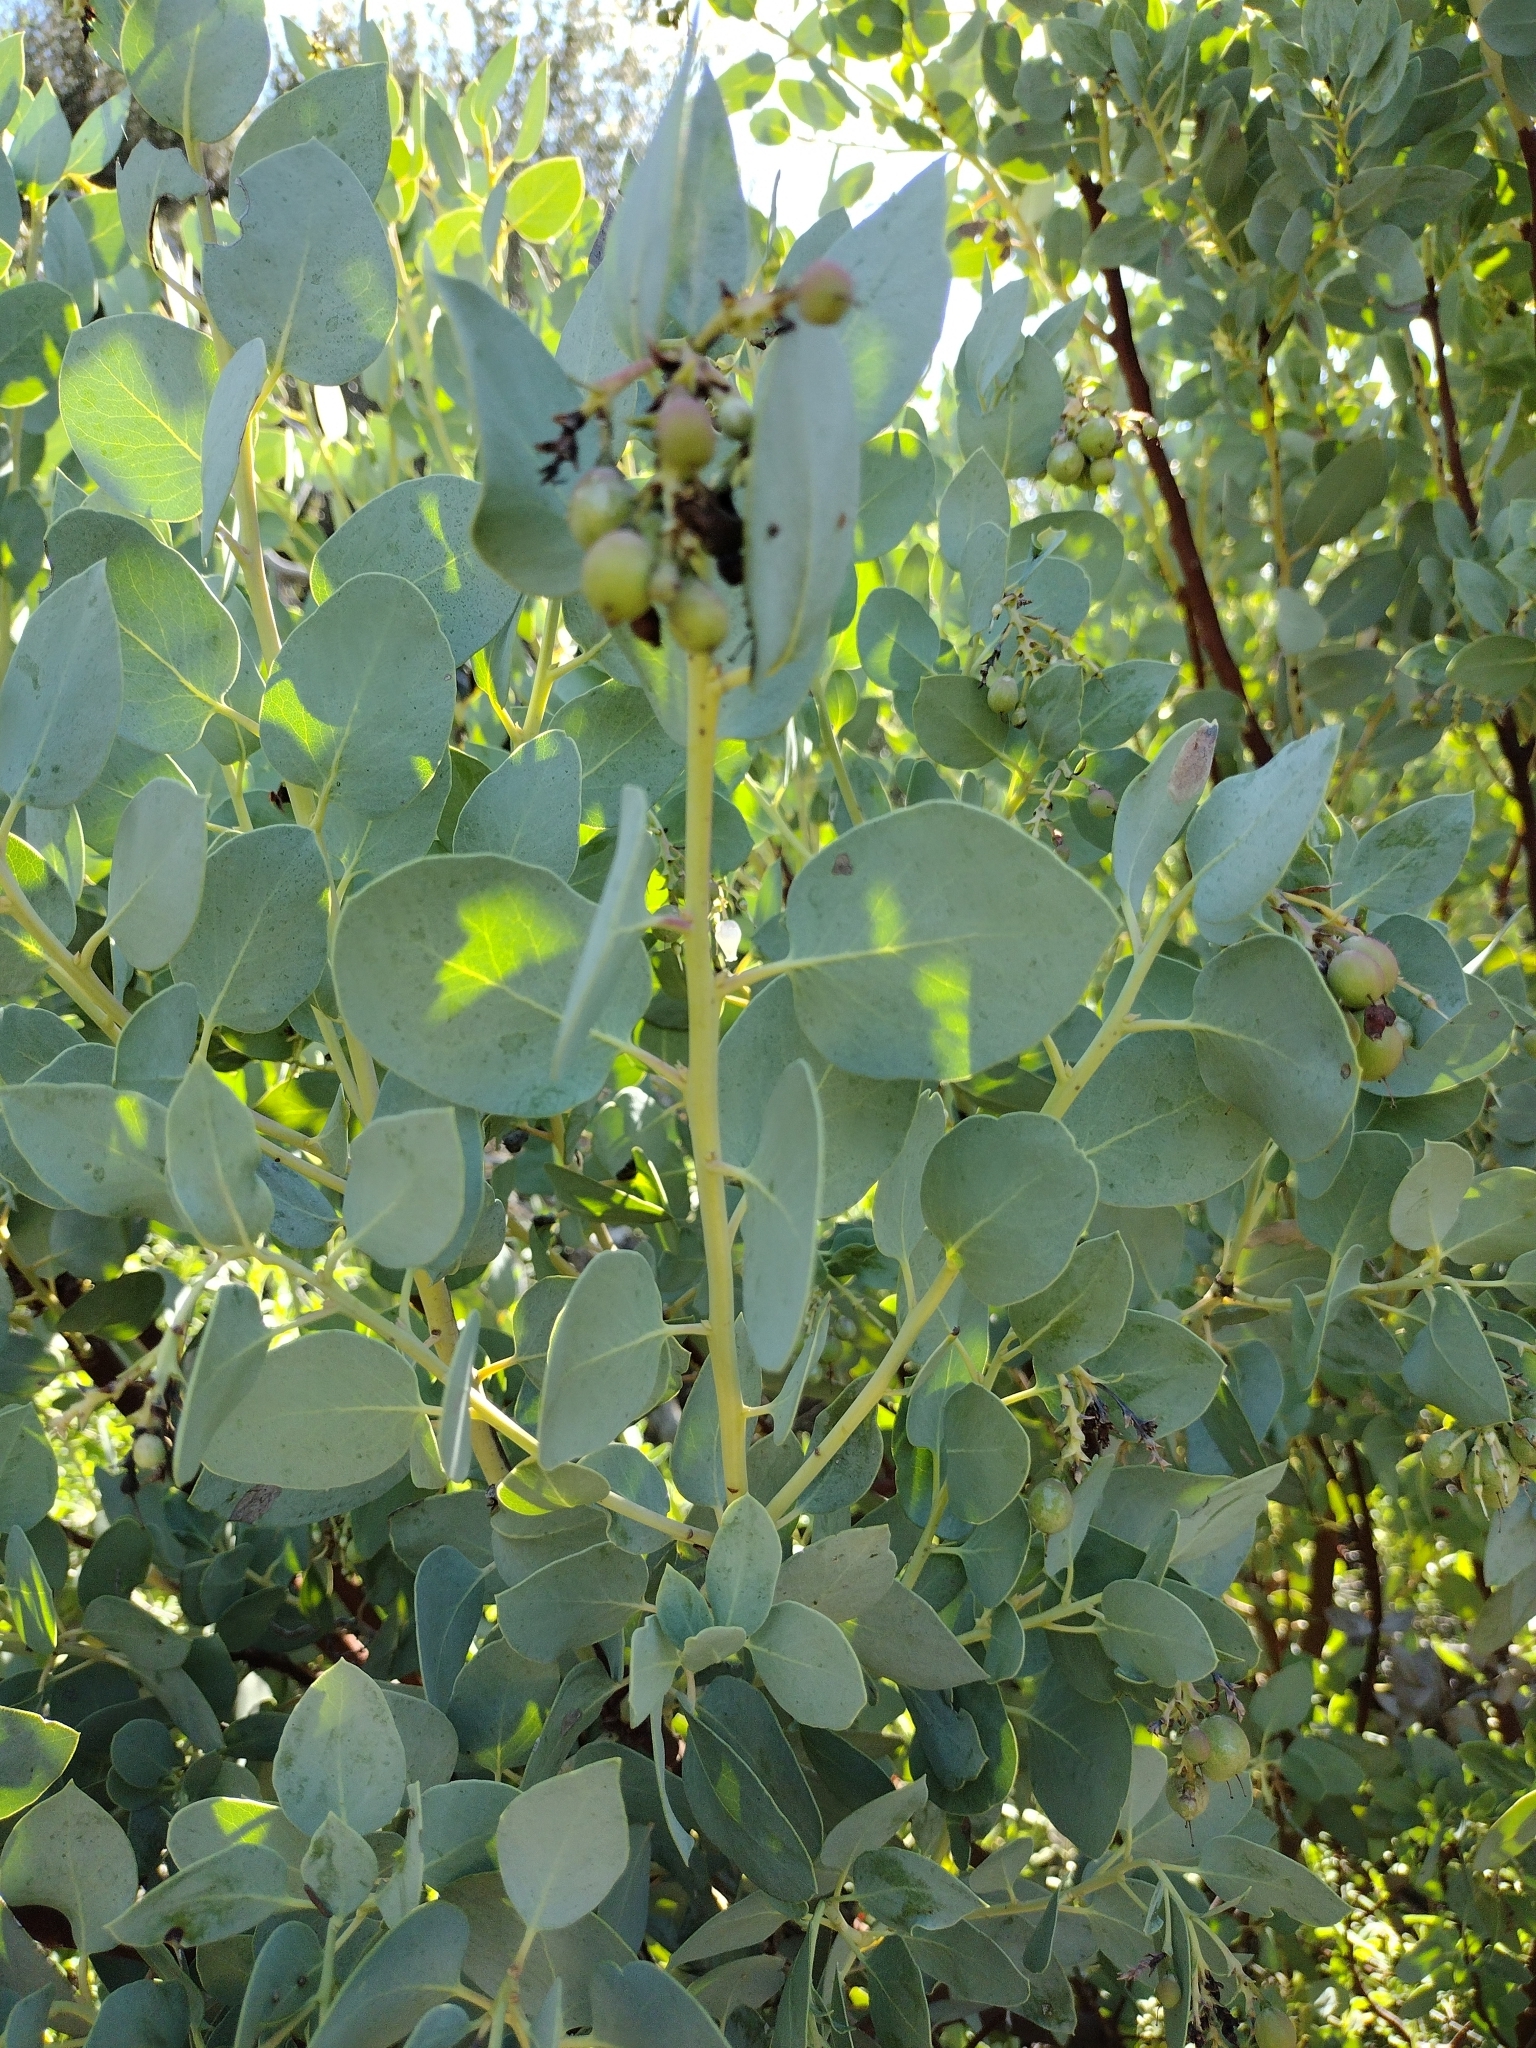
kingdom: Plantae
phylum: Tracheophyta
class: Magnoliopsida
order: Ericales
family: Ericaceae
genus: Arctostaphylos
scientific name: Arctostaphylos glauca
